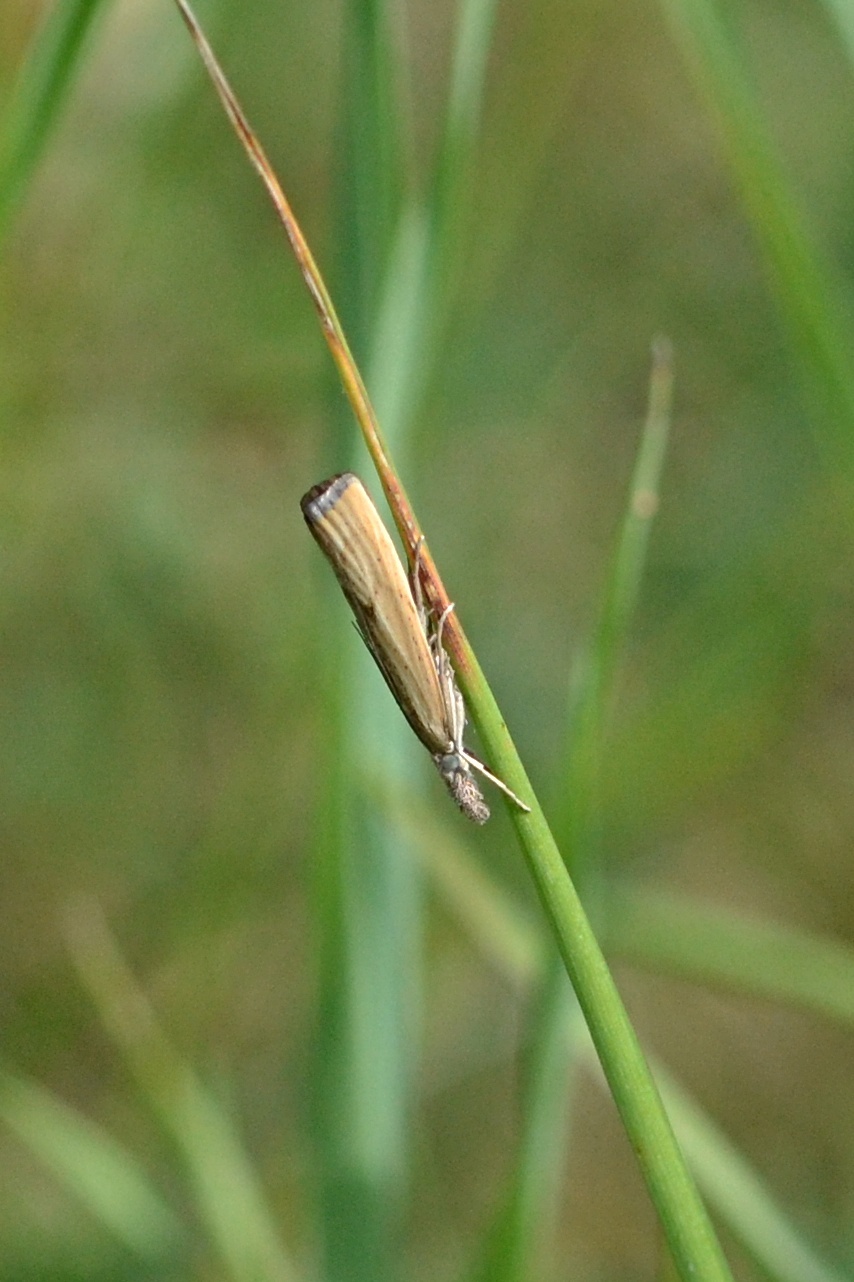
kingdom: Animalia
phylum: Arthropoda
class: Insecta
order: Lepidoptera
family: Crambidae
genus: Agriphila
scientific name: Agriphila inquinatella
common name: Barred grass-veneer
